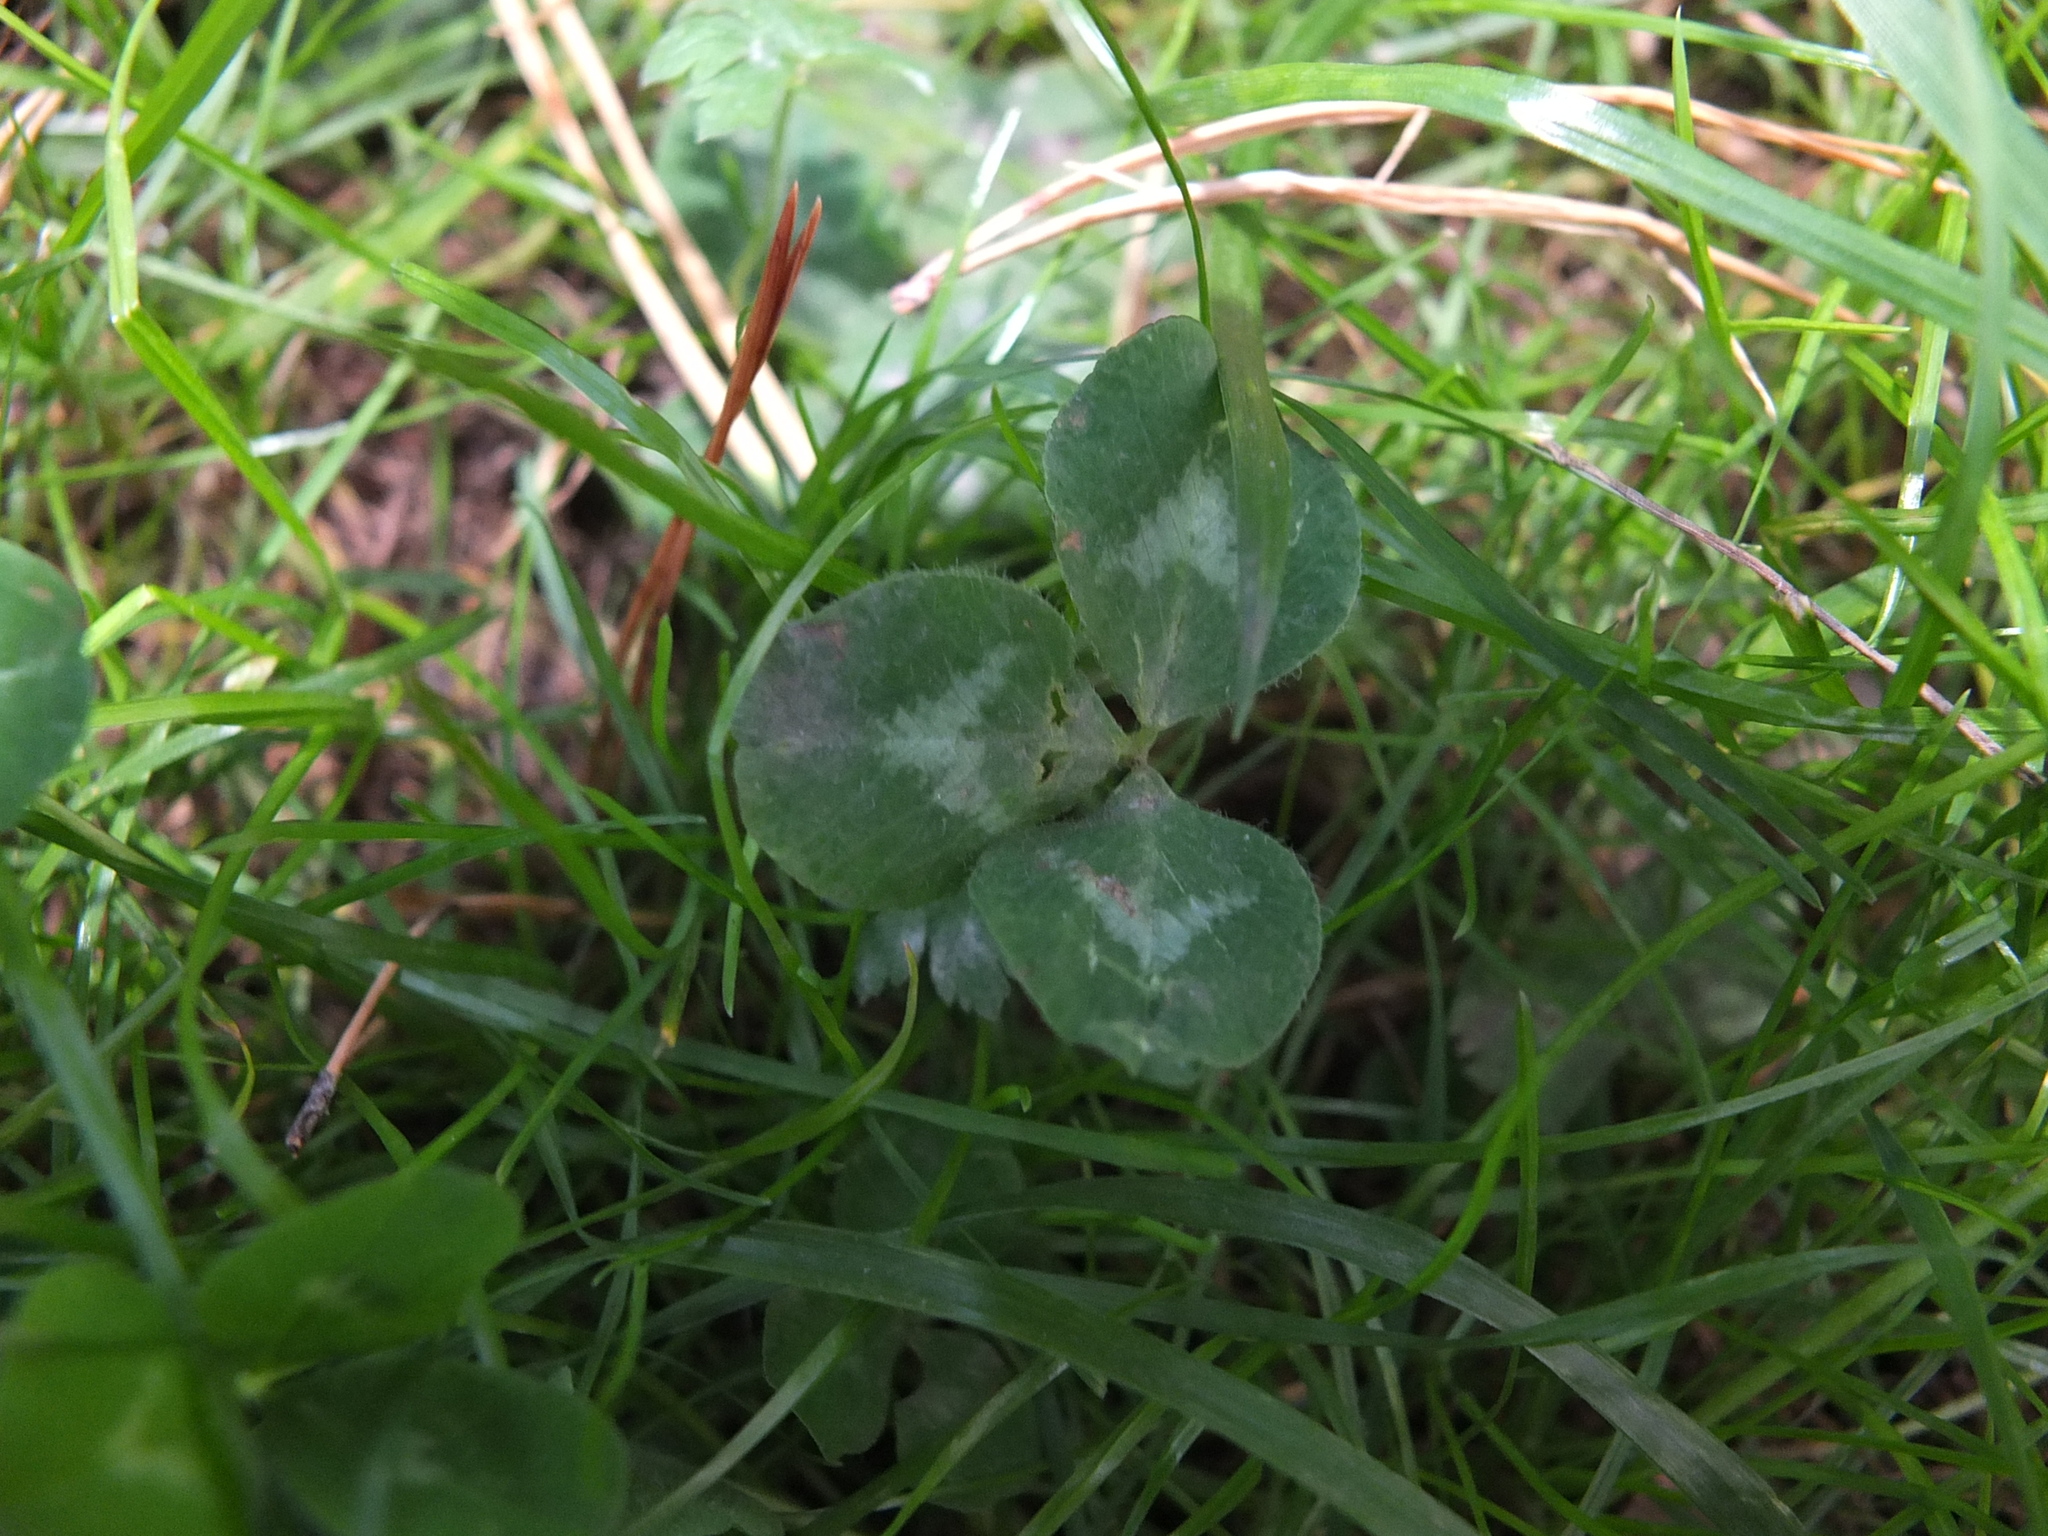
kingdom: Plantae
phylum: Tracheophyta
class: Magnoliopsida
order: Fabales
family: Fabaceae
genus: Trifolium
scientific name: Trifolium pratense
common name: Red clover
